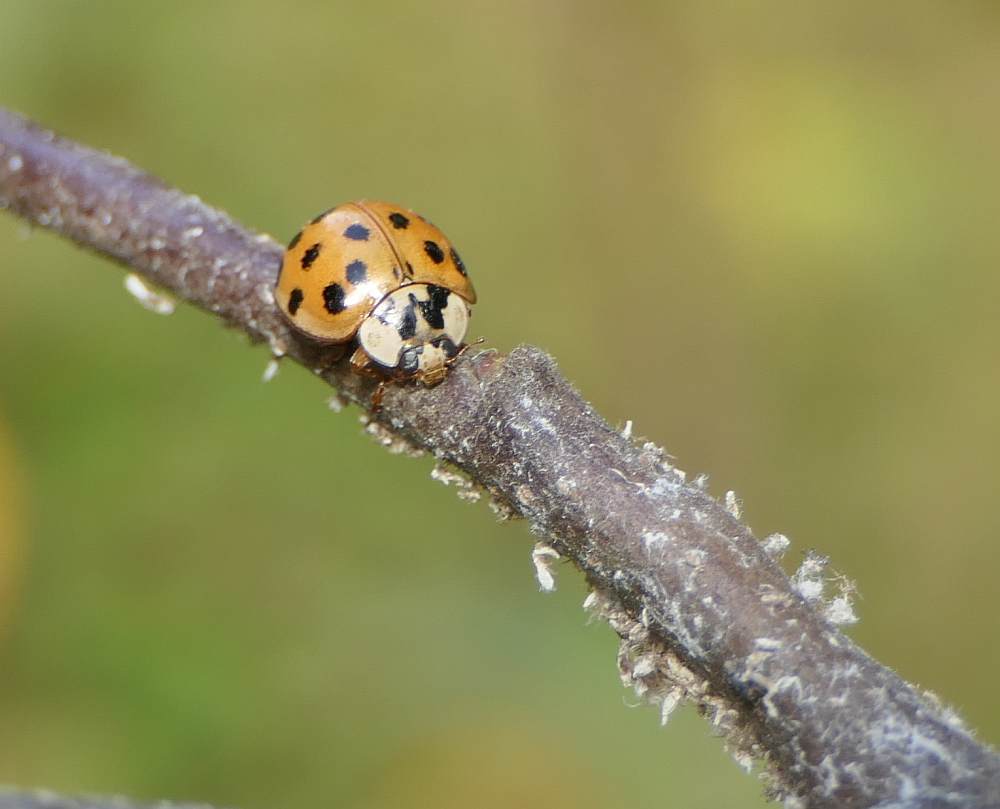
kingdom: Animalia
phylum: Arthropoda
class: Insecta
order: Coleoptera
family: Coccinellidae
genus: Harmonia
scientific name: Harmonia axyridis
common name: Harlequin ladybird
